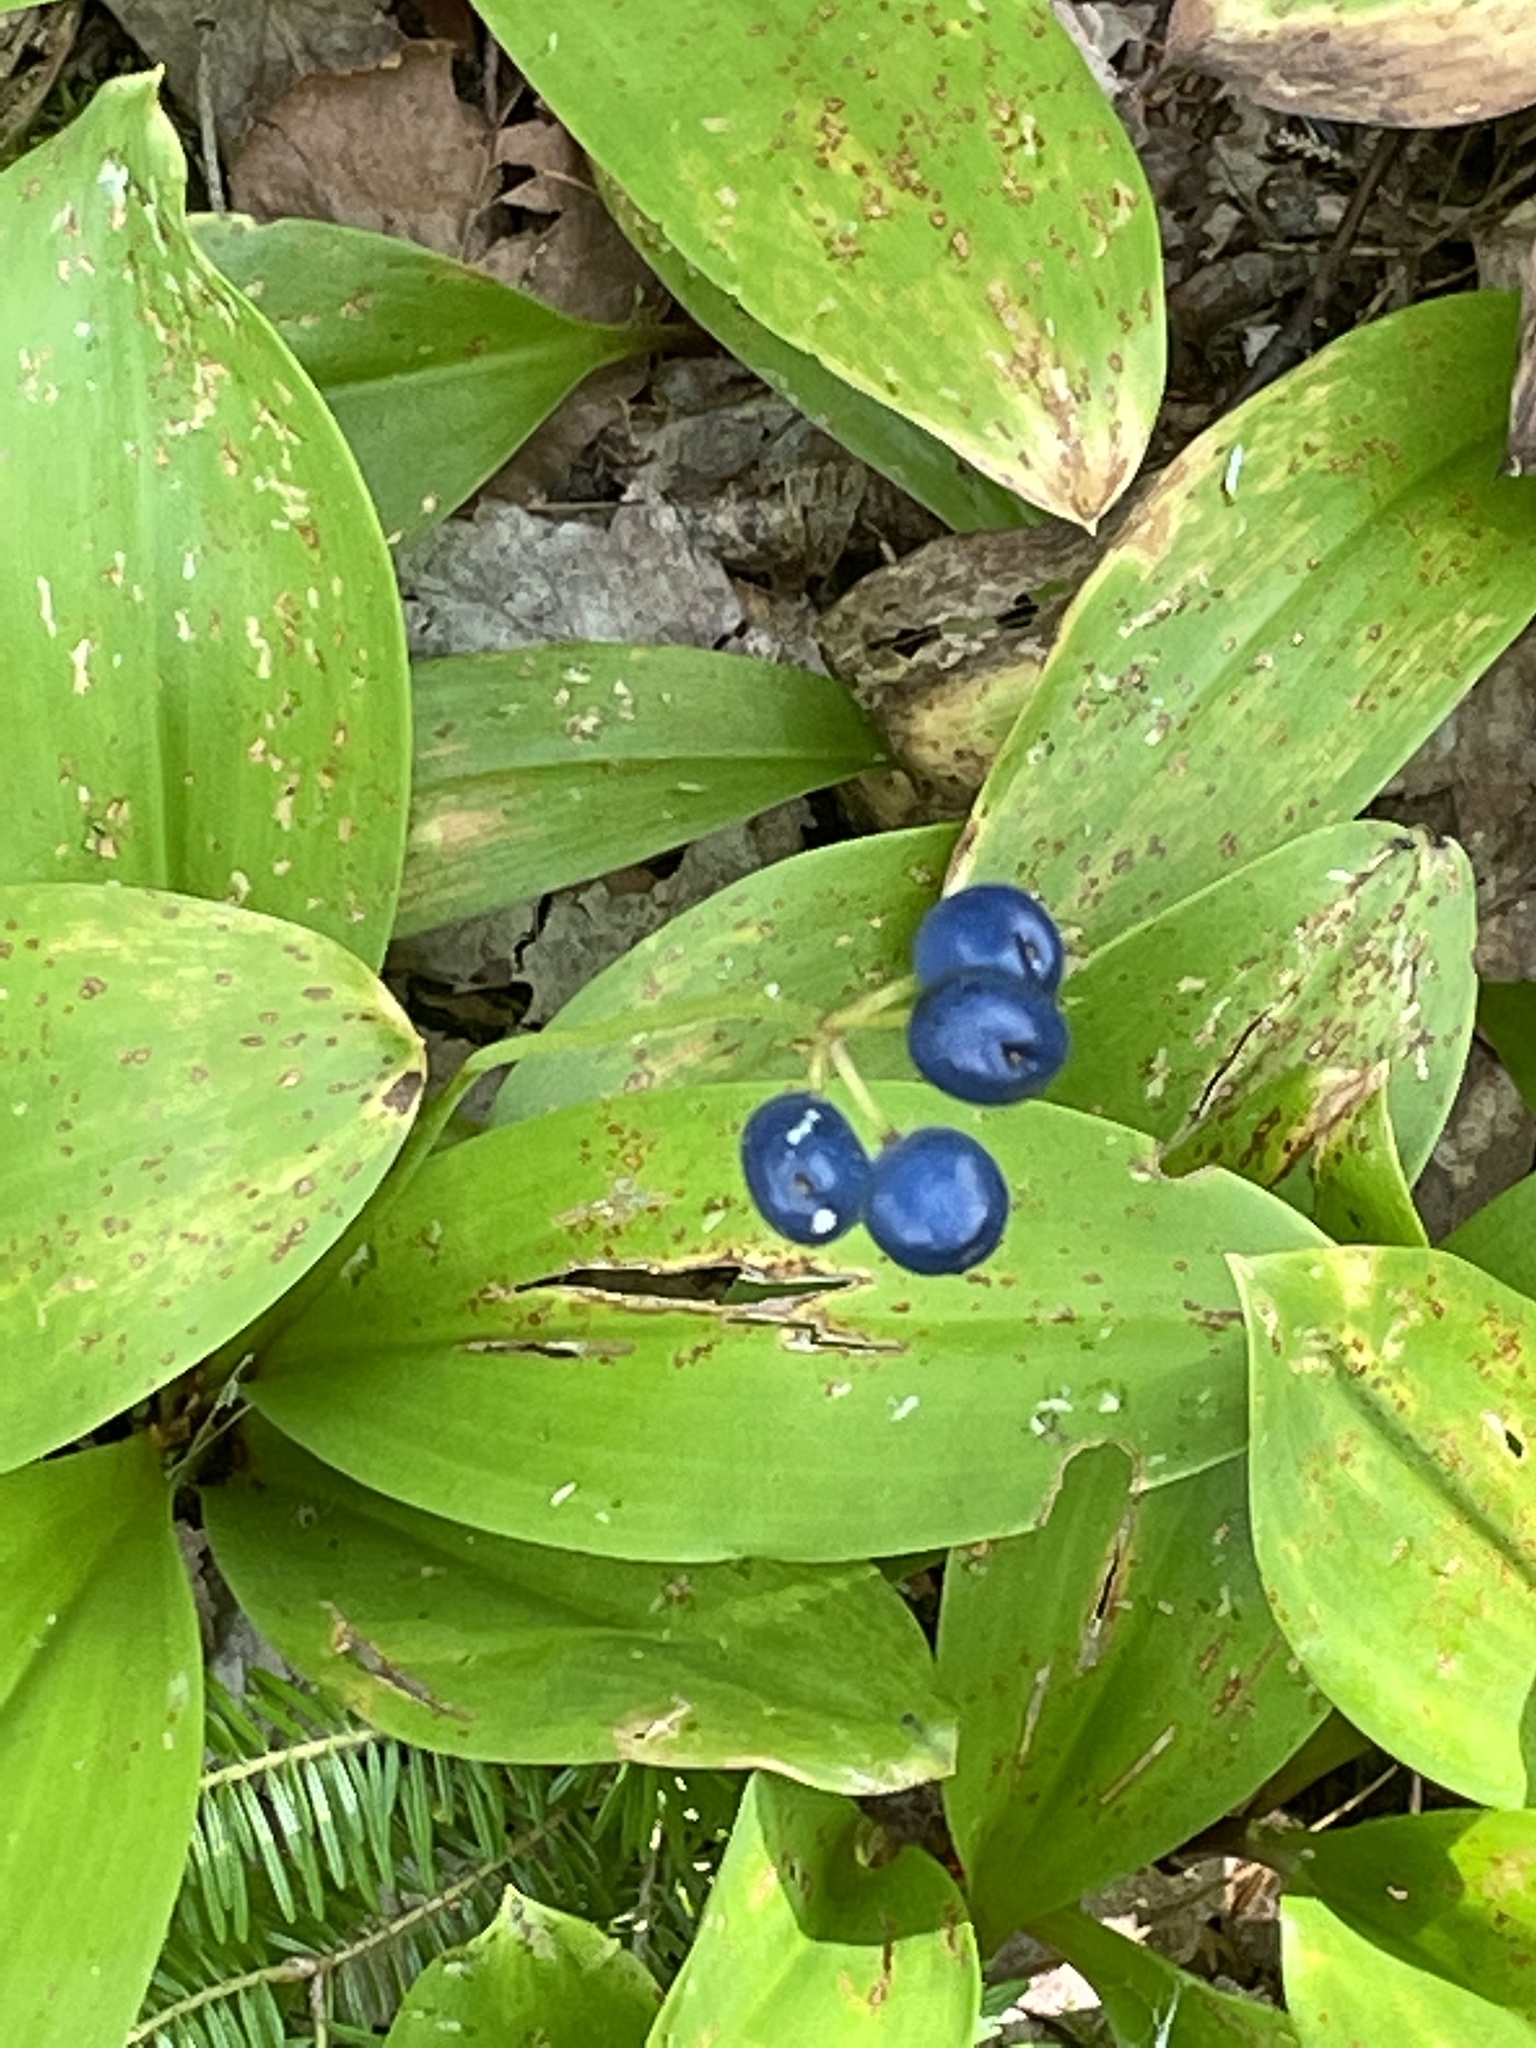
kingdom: Plantae
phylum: Tracheophyta
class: Liliopsida
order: Liliales
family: Liliaceae
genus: Clintonia
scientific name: Clintonia borealis
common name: Yellow clintonia
